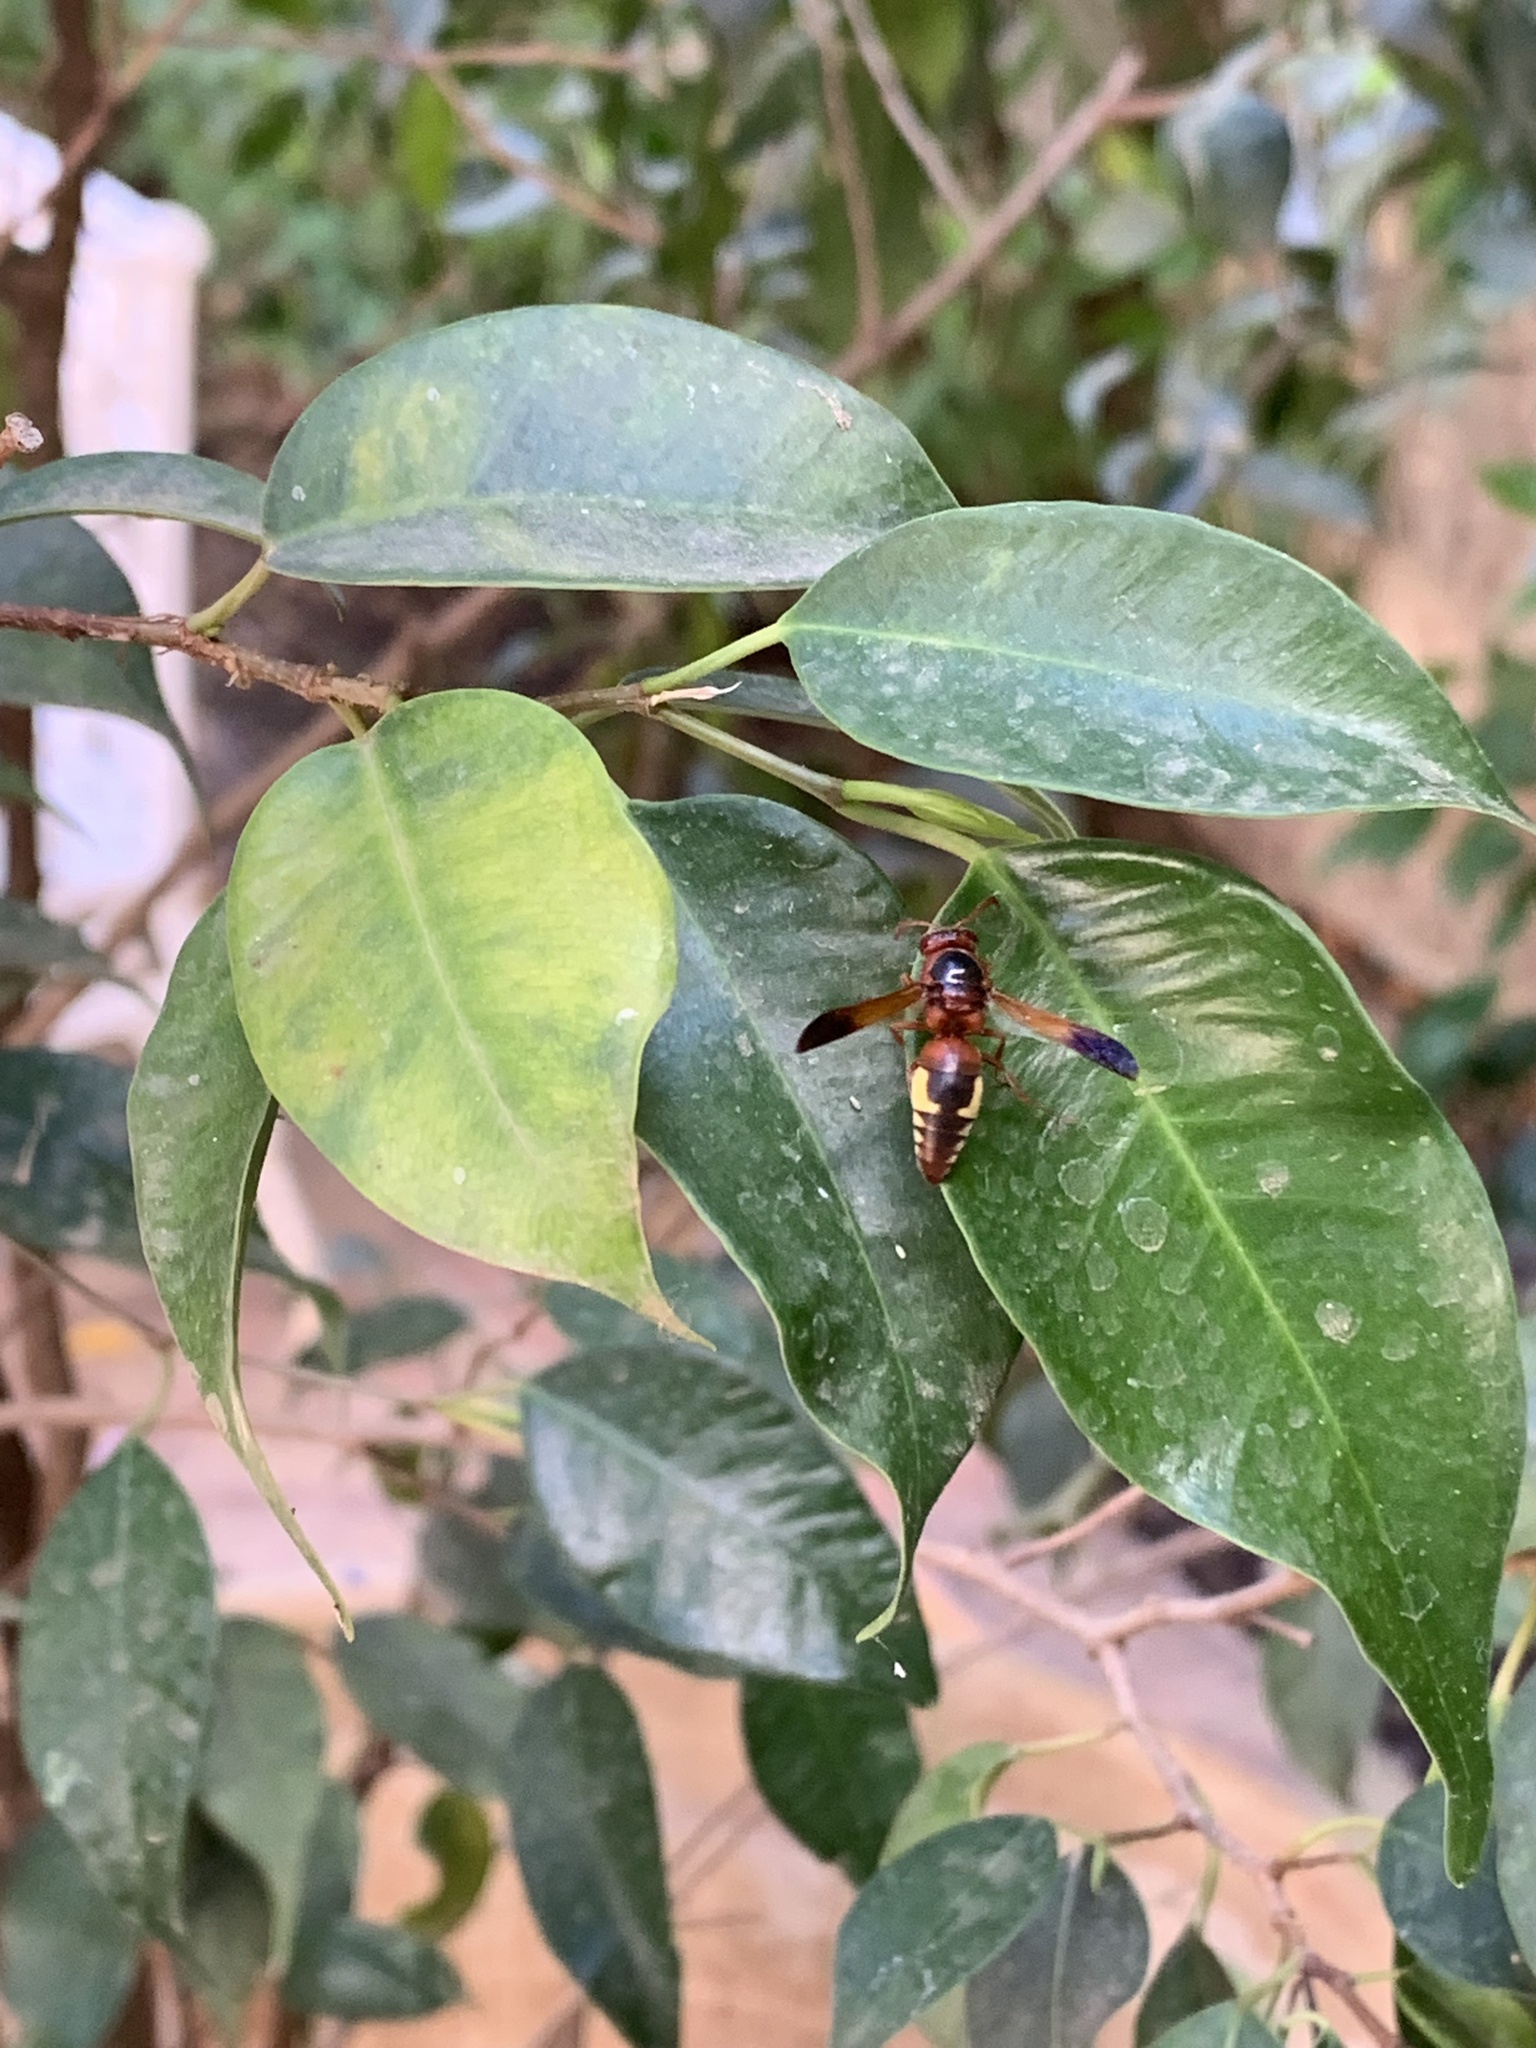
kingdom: Animalia
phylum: Arthropoda
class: Insecta
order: Hymenoptera
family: Eumenidae
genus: Rhynchium
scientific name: Rhynchium oculatum
